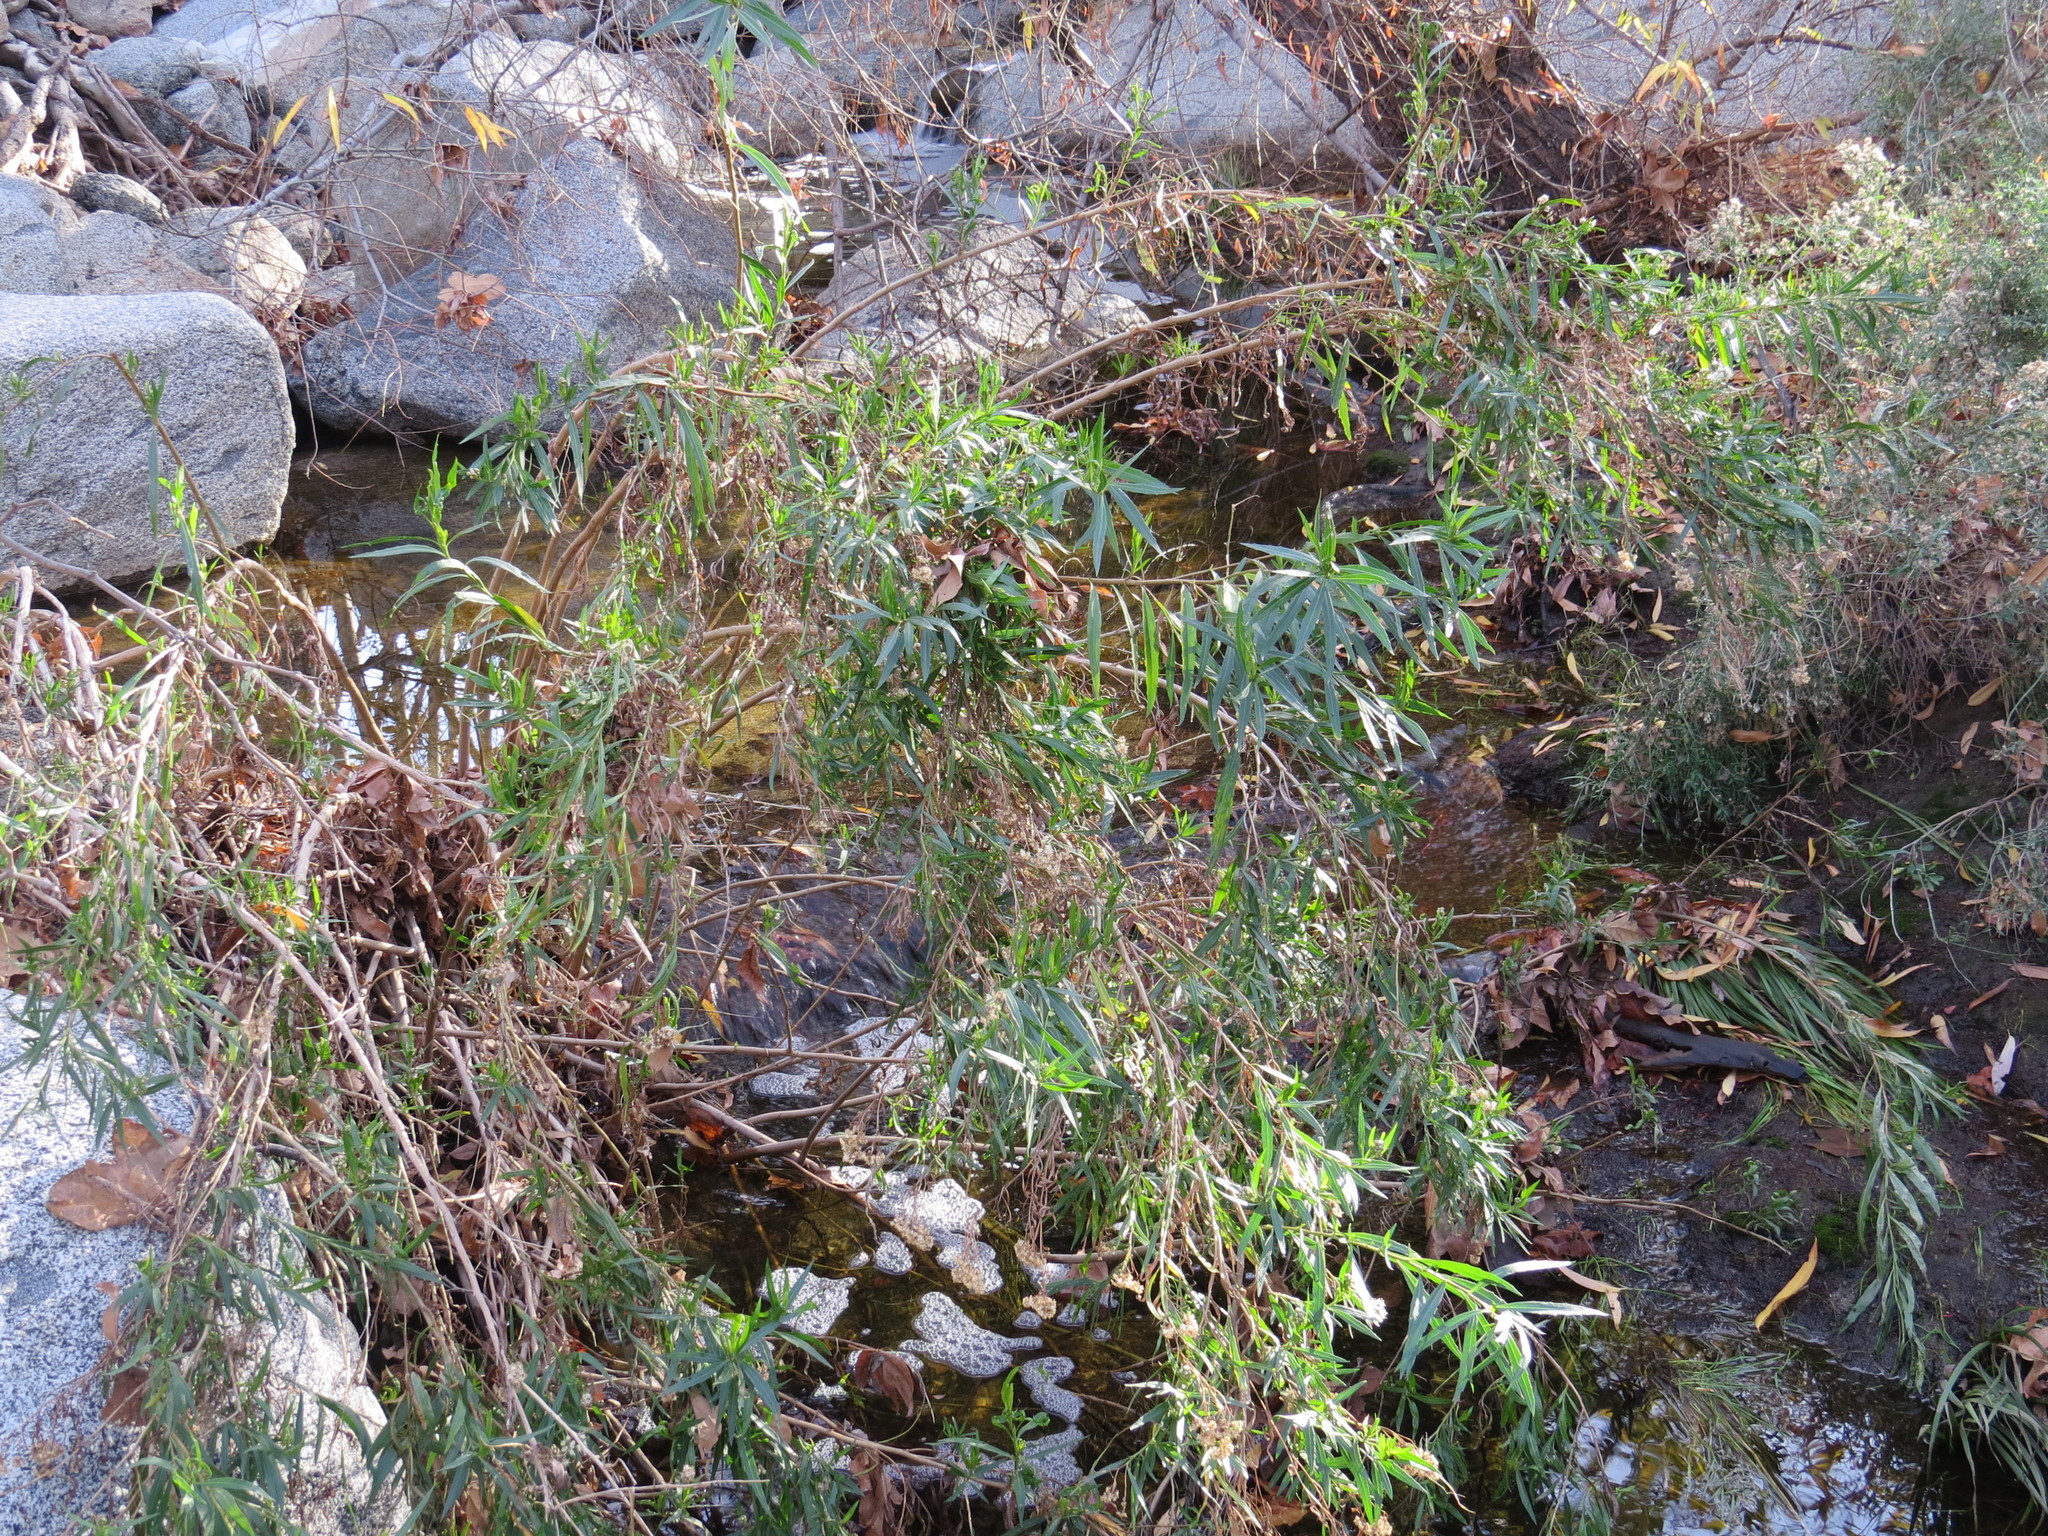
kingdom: Plantae
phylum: Tracheophyta
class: Magnoliopsida
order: Asterales
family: Asteraceae
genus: Baccharis
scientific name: Baccharis salicifolia
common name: Sticky baccharis
